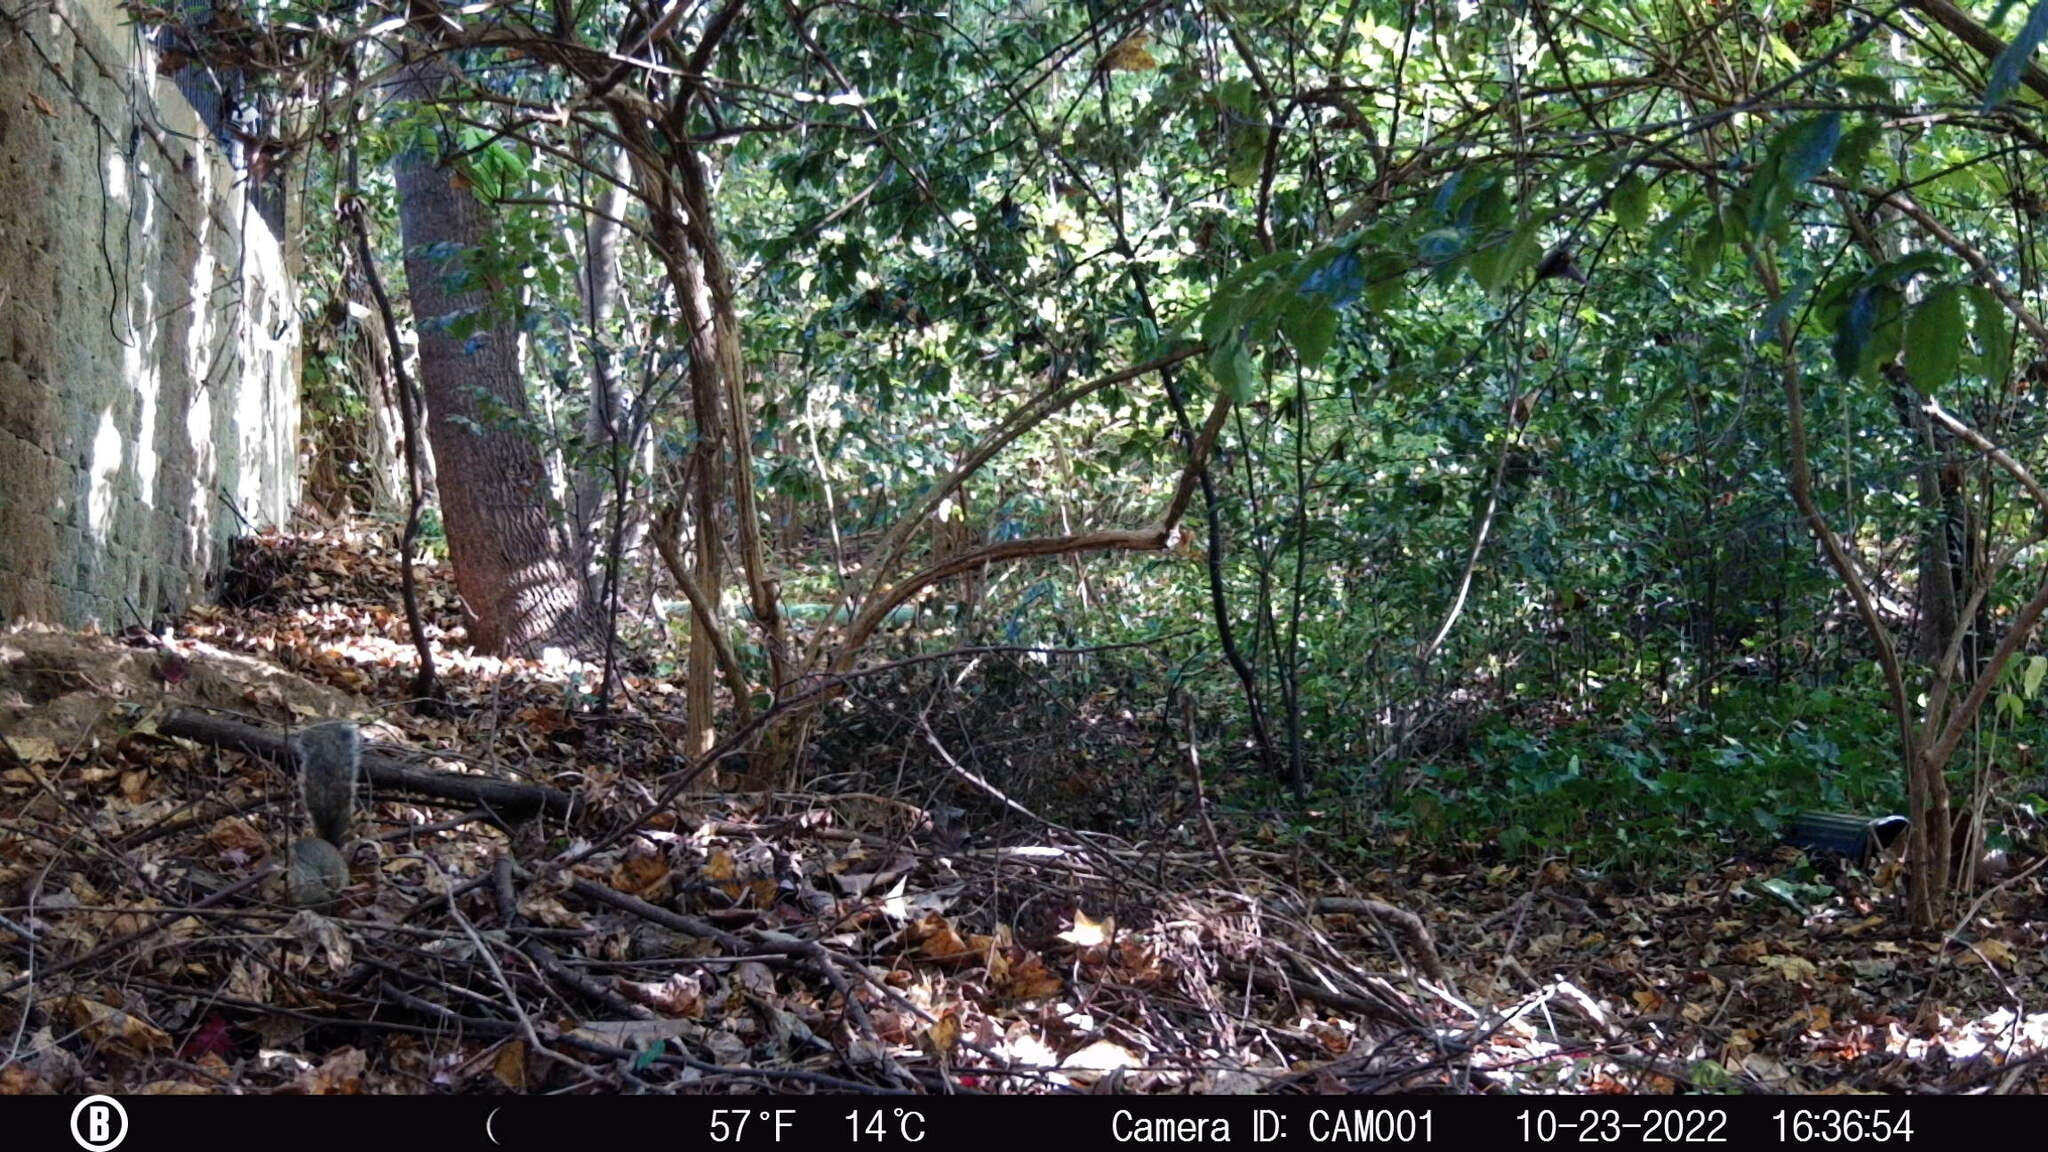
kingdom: Animalia
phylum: Chordata
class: Mammalia
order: Rodentia
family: Sciuridae
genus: Sciurus
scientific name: Sciurus carolinensis
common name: Eastern gray squirrel
